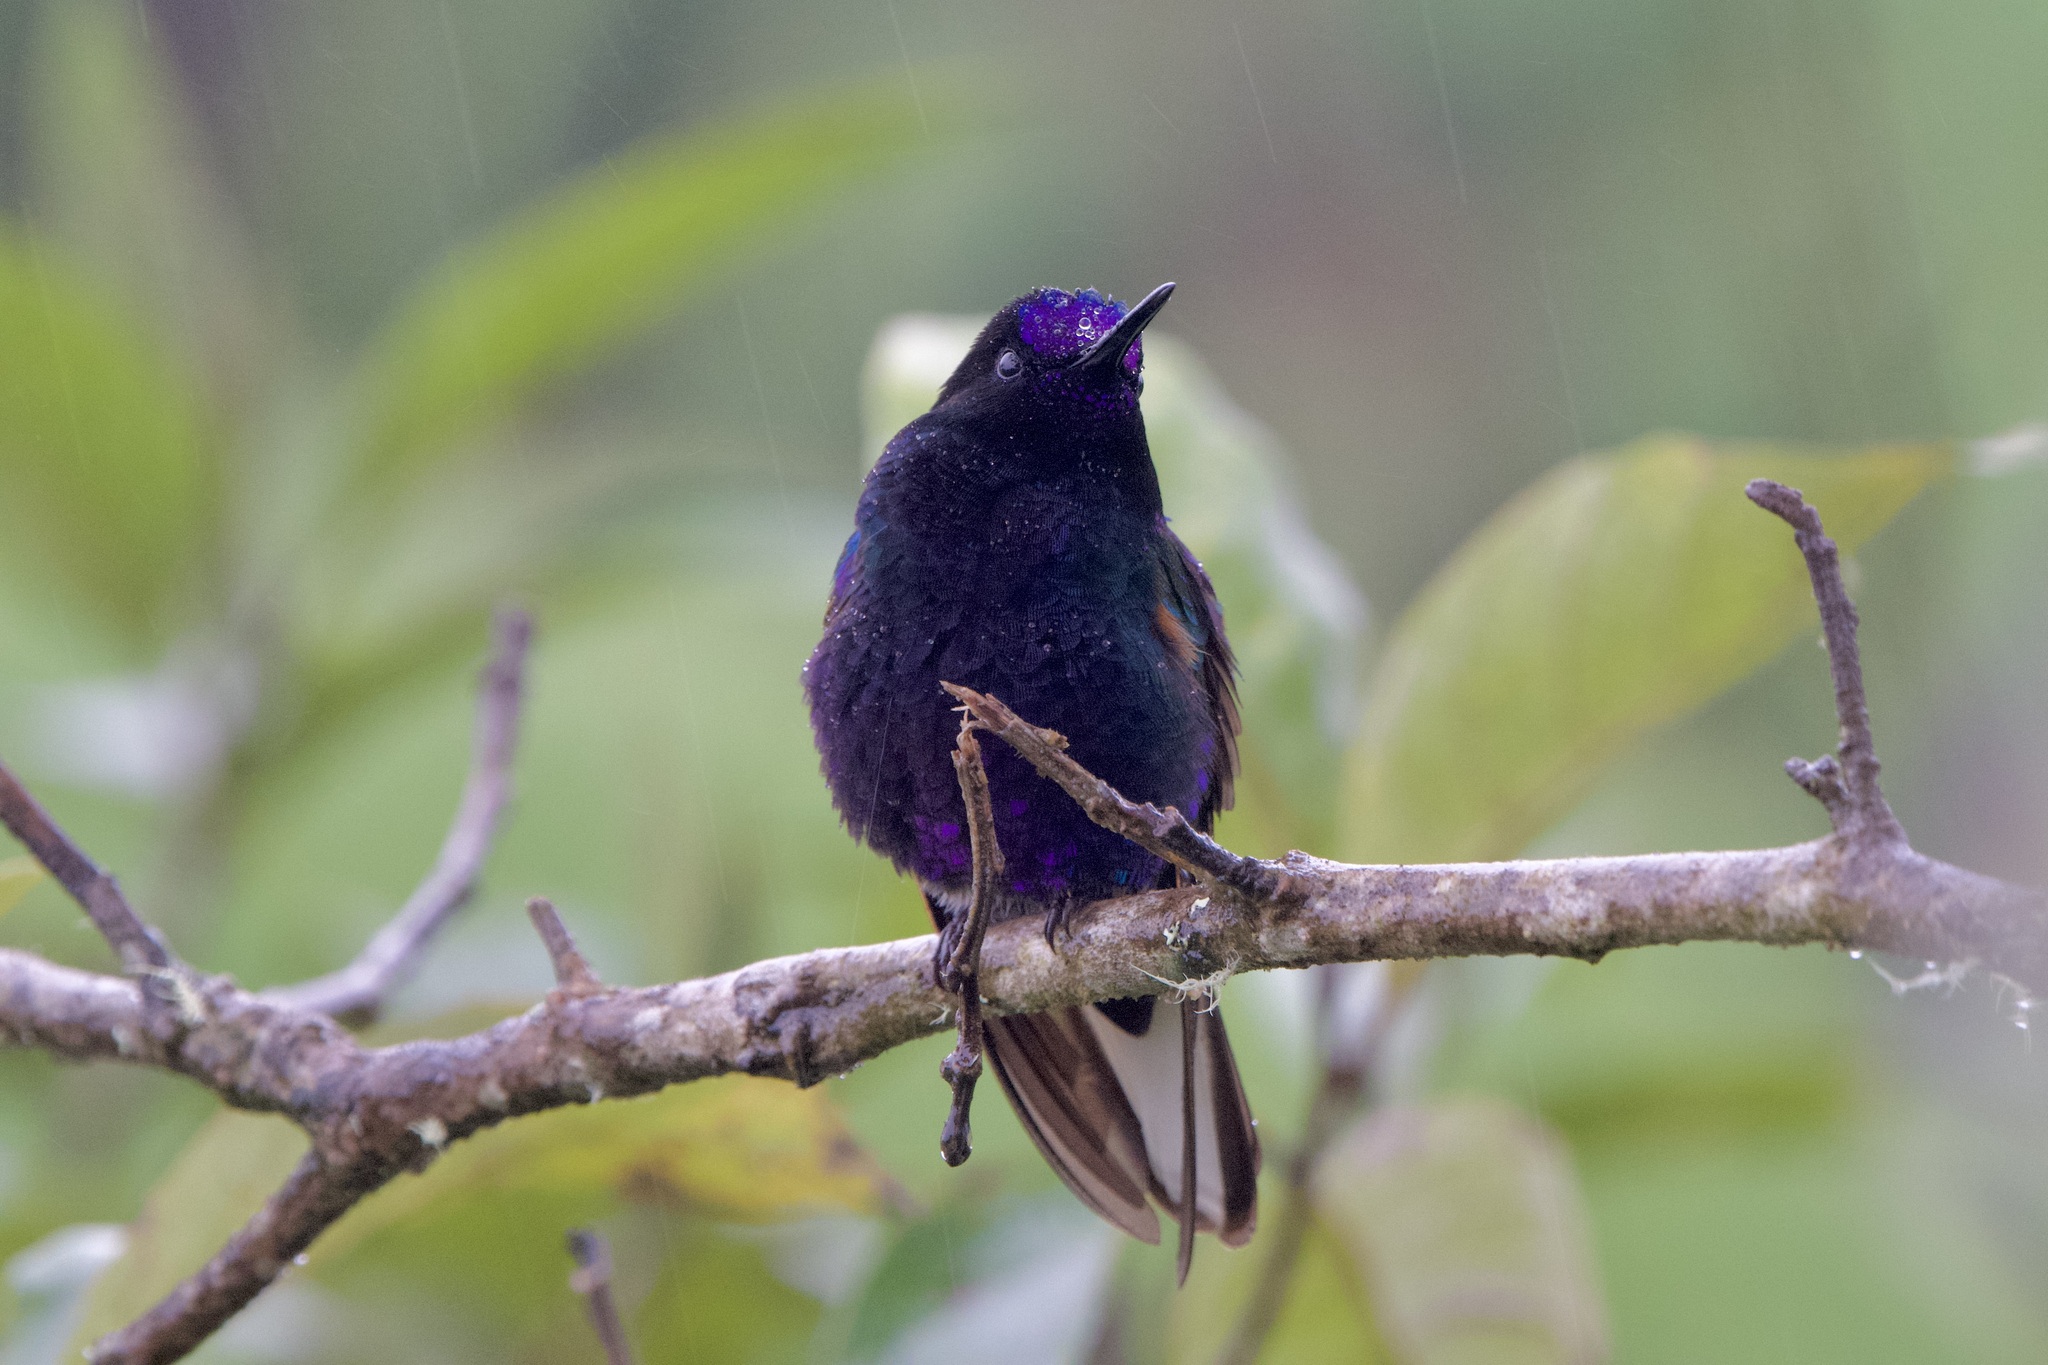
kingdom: Animalia
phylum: Chordata
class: Aves
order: Apodiformes
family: Trochilidae
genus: Boissonneaua
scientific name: Boissonneaua jardini
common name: Velvet-purple coronet
